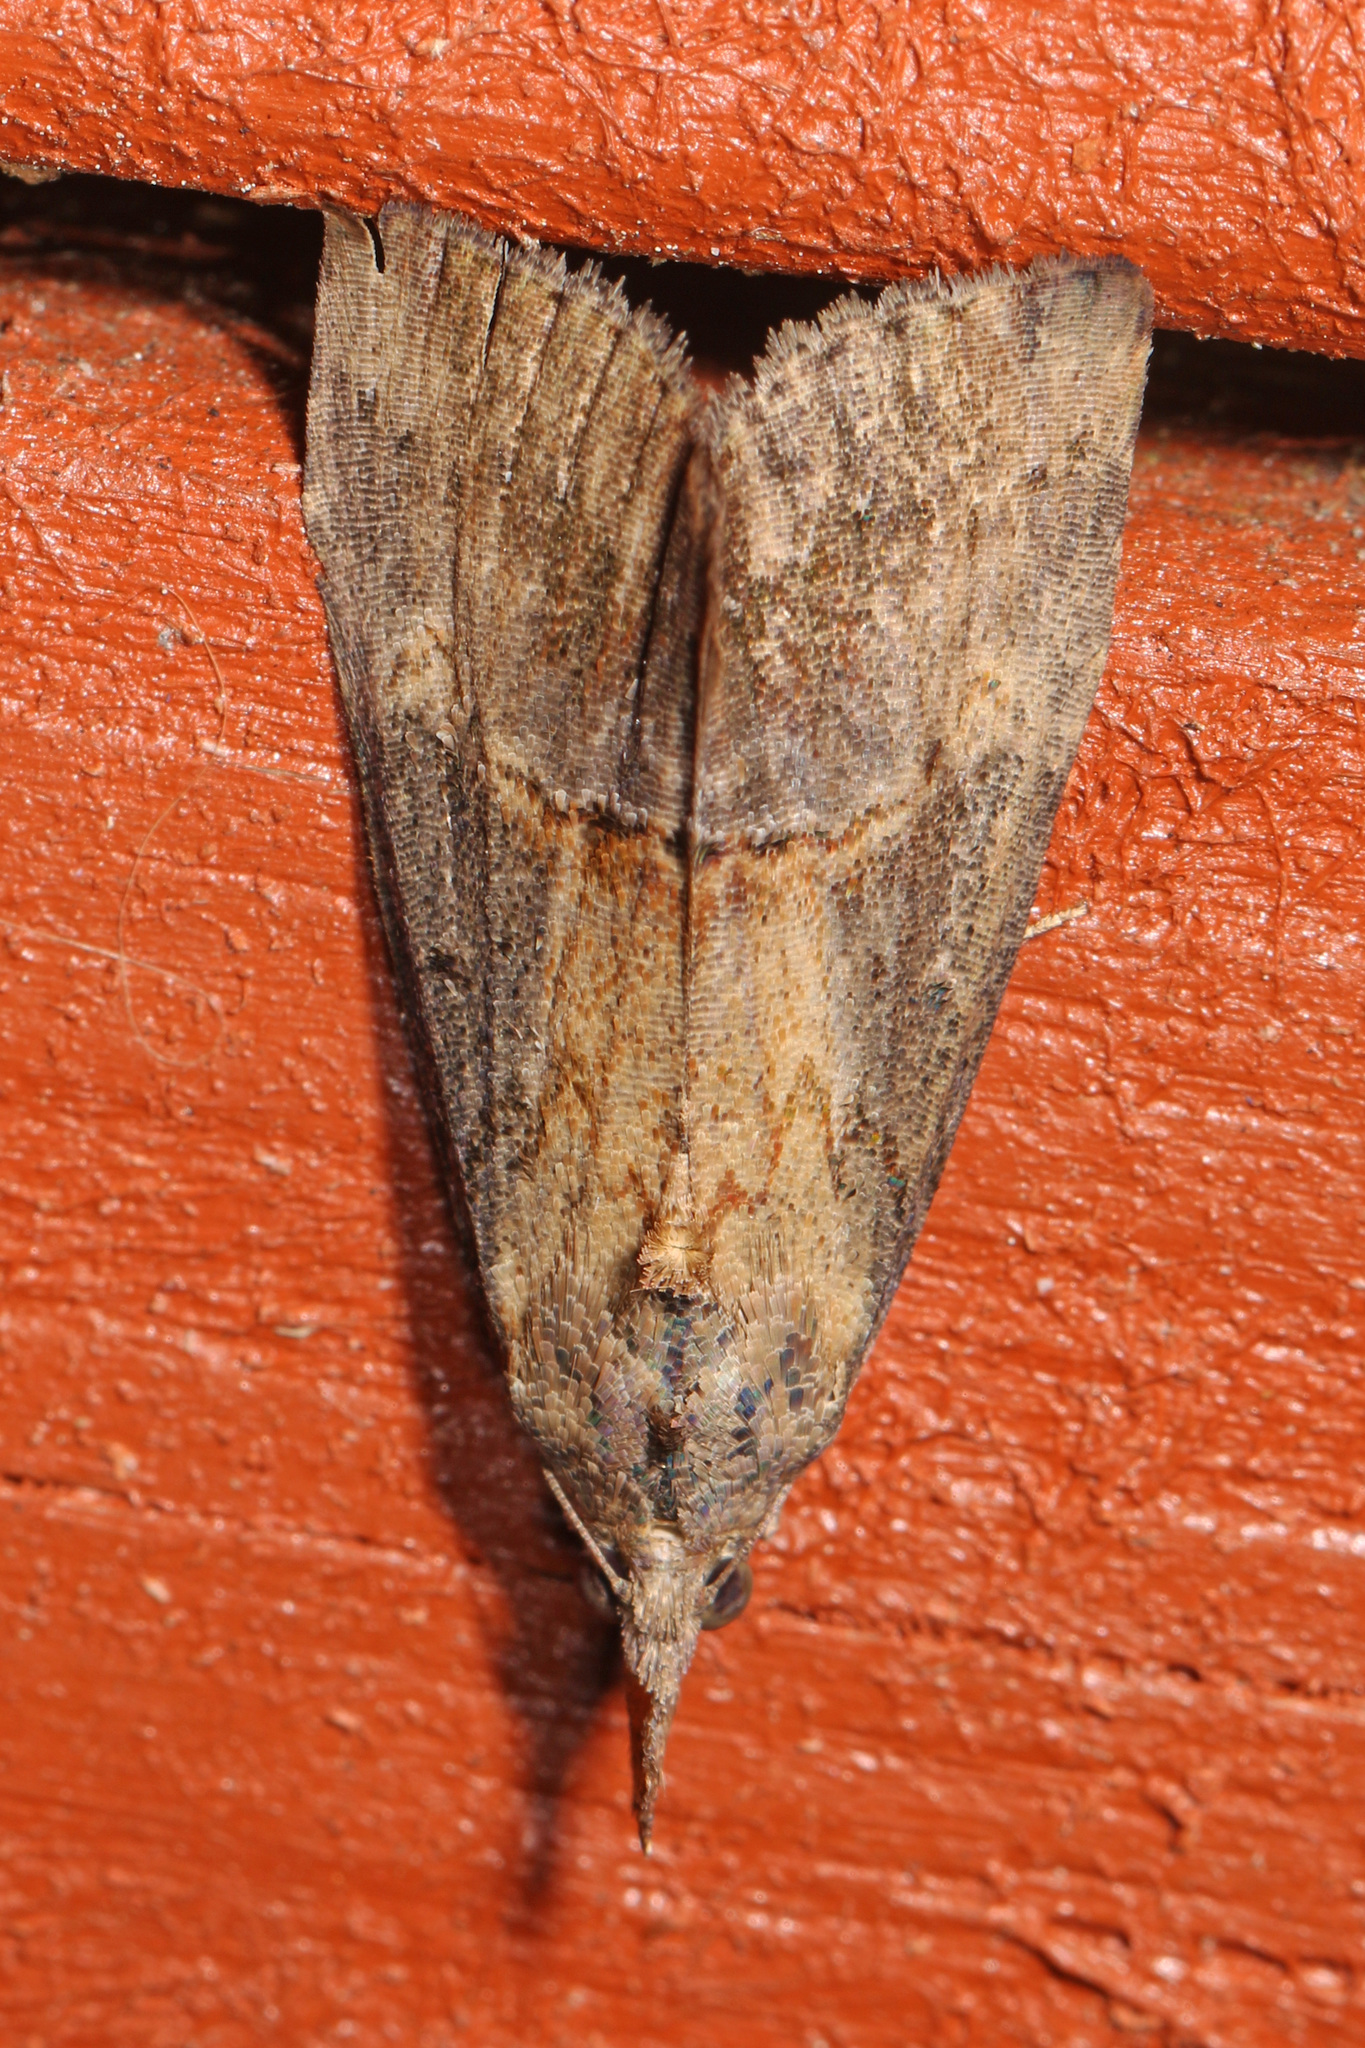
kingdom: Animalia
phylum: Arthropoda
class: Insecta
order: Lepidoptera
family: Erebidae
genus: Hypena
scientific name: Hypena scabra
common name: Green cloverworm
